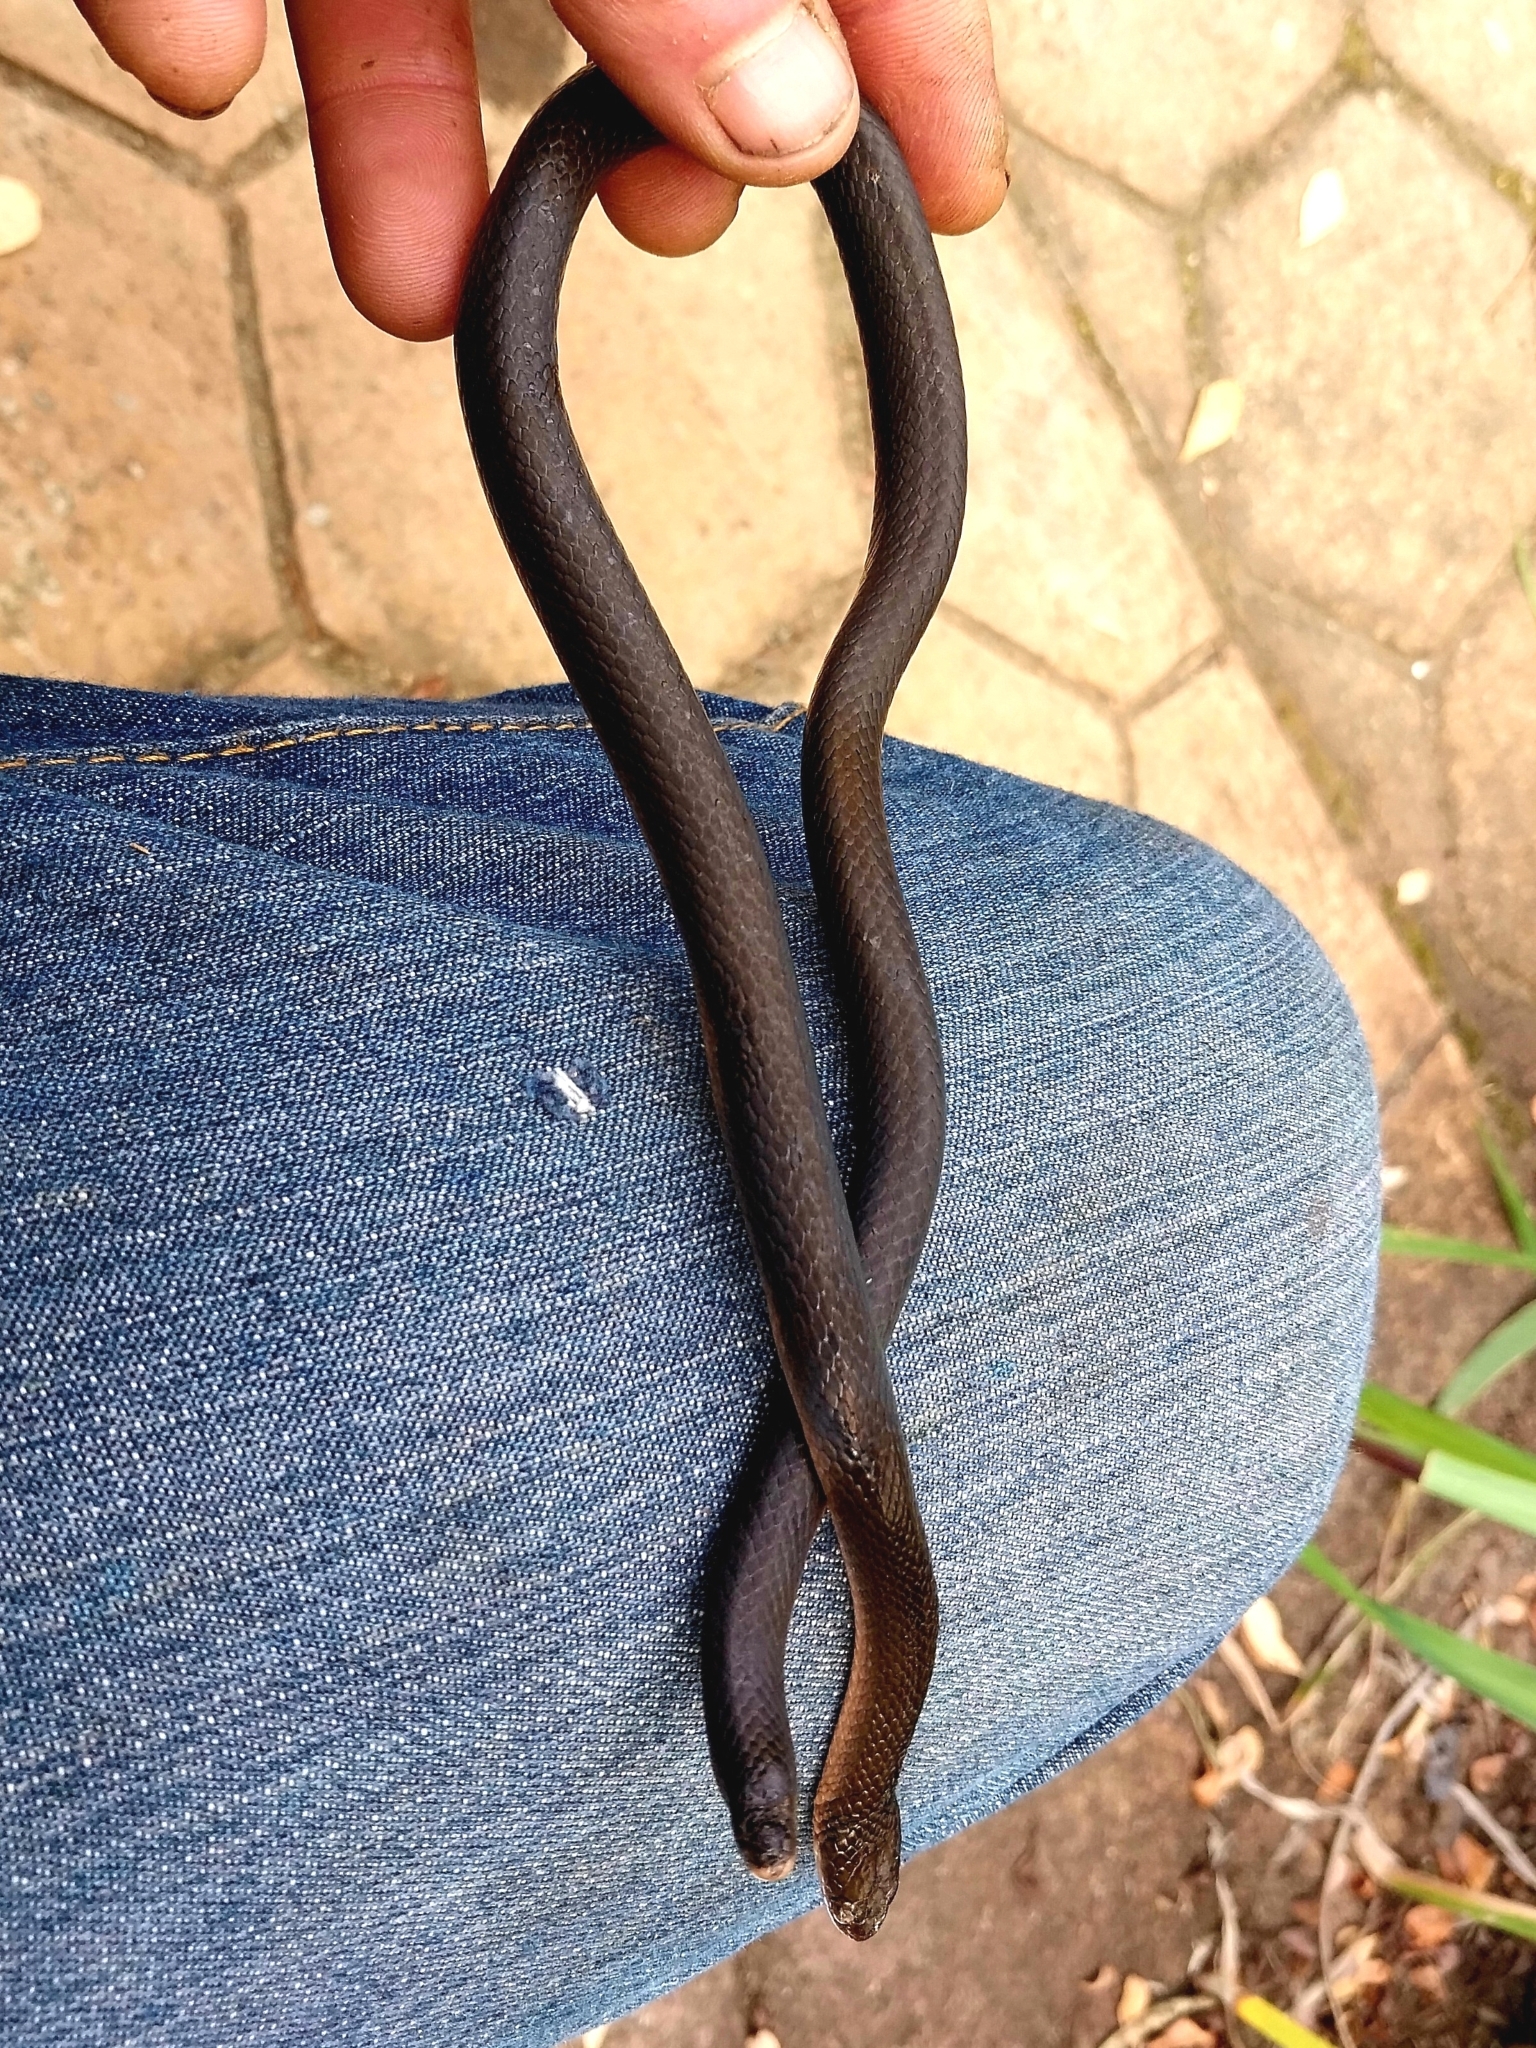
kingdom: Animalia
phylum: Chordata
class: Squamata
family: Lamprophiidae
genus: Lycodonomorphus
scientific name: Lycodonomorphus rufulus
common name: Brown water snake
